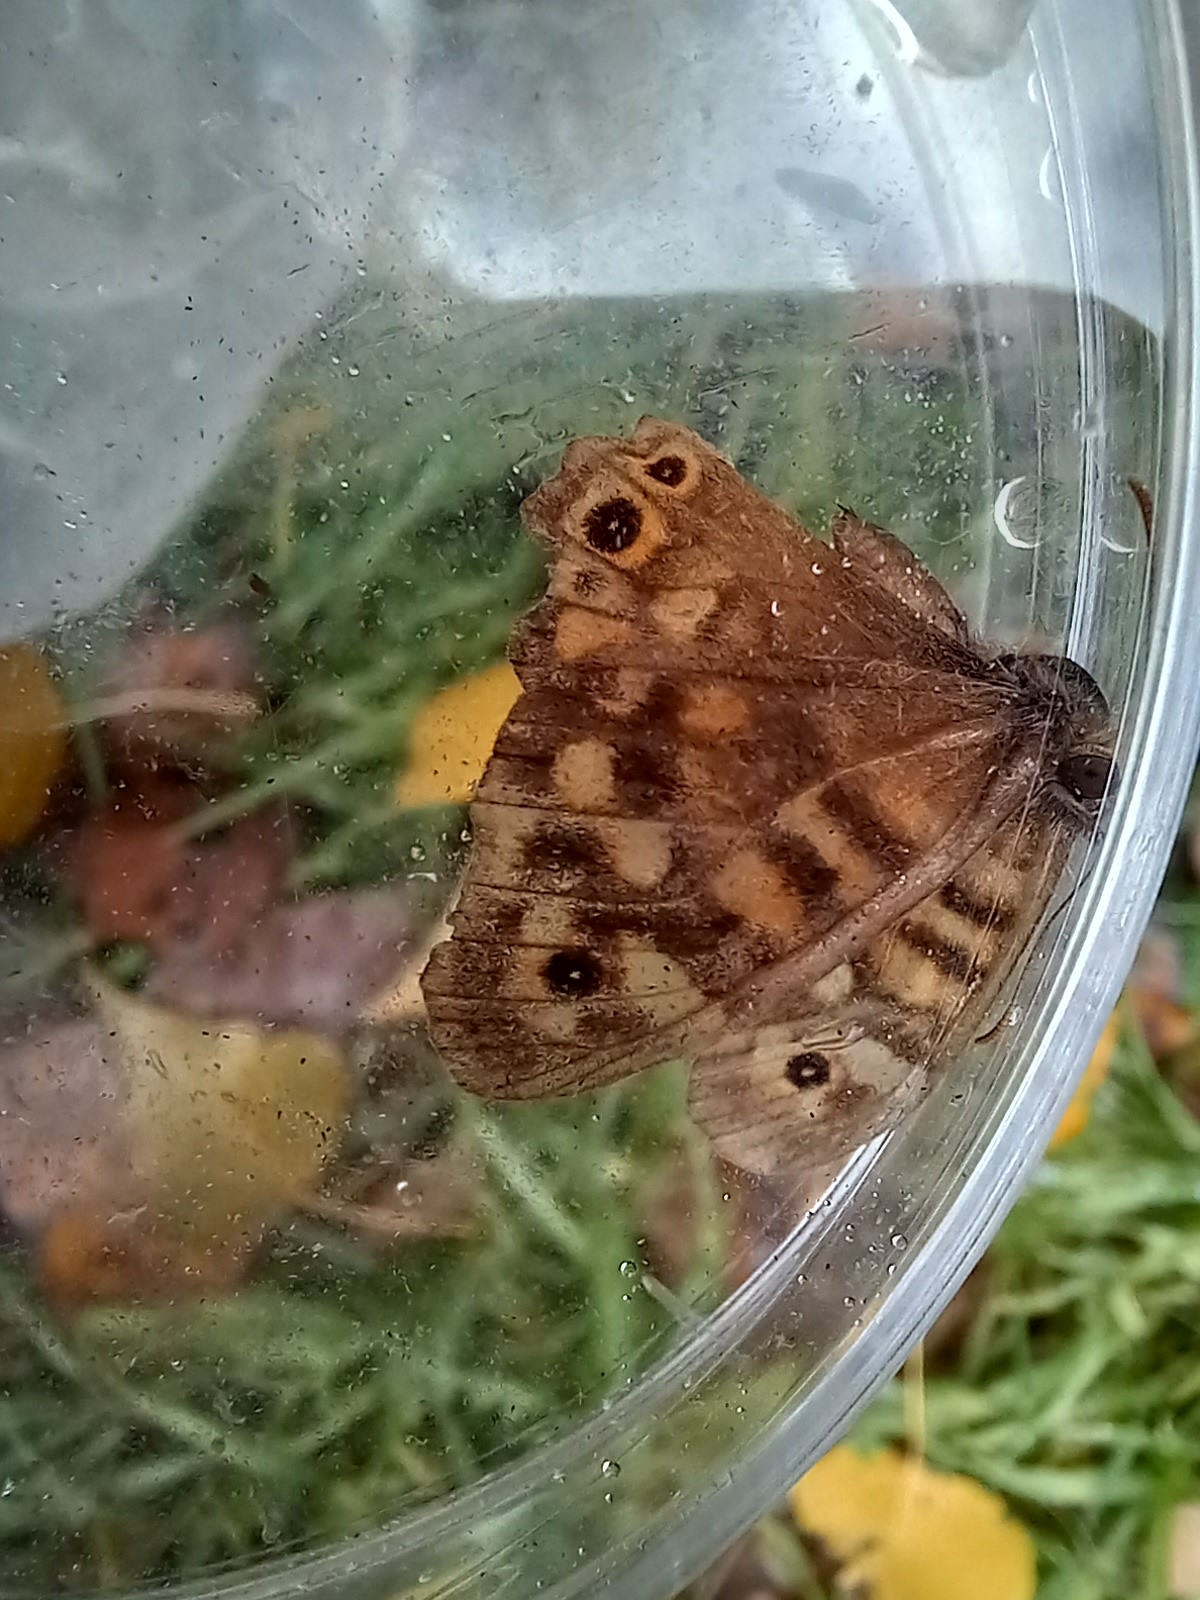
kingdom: Animalia
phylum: Arthropoda
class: Insecta
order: Lepidoptera
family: Nymphalidae
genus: Pararge
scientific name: Pararge aegeria
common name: Speckled wood
